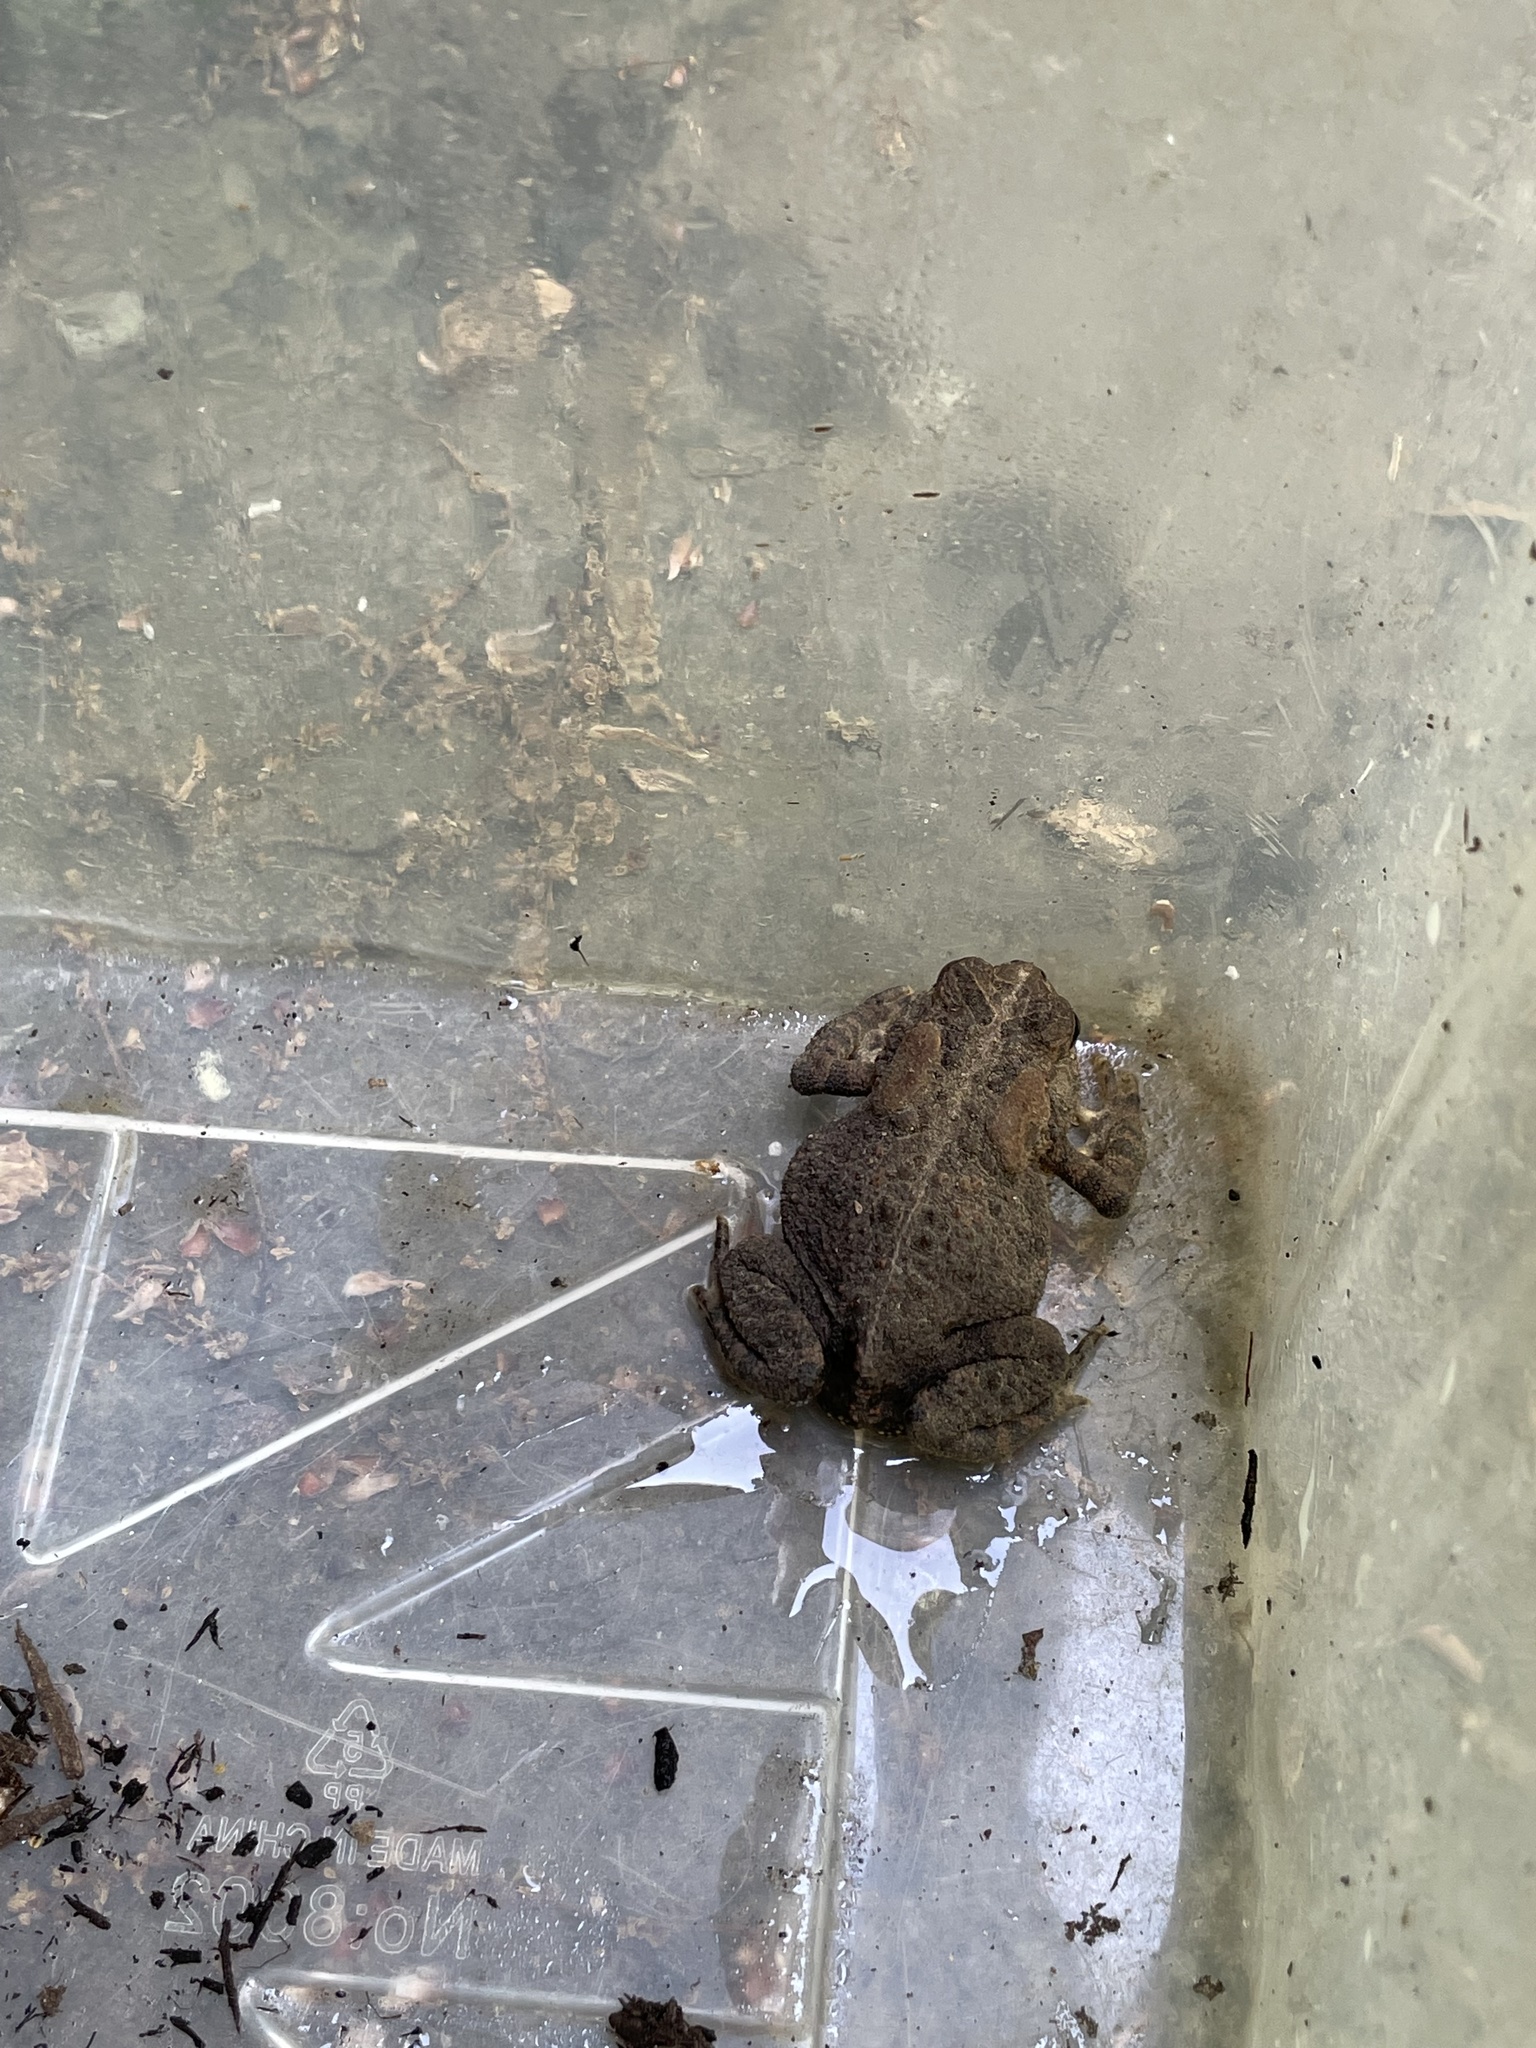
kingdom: Animalia
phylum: Chordata
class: Amphibia
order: Anura
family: Bufonidae
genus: Anaxyrus
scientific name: Anaxyrus americanus
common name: American toad
